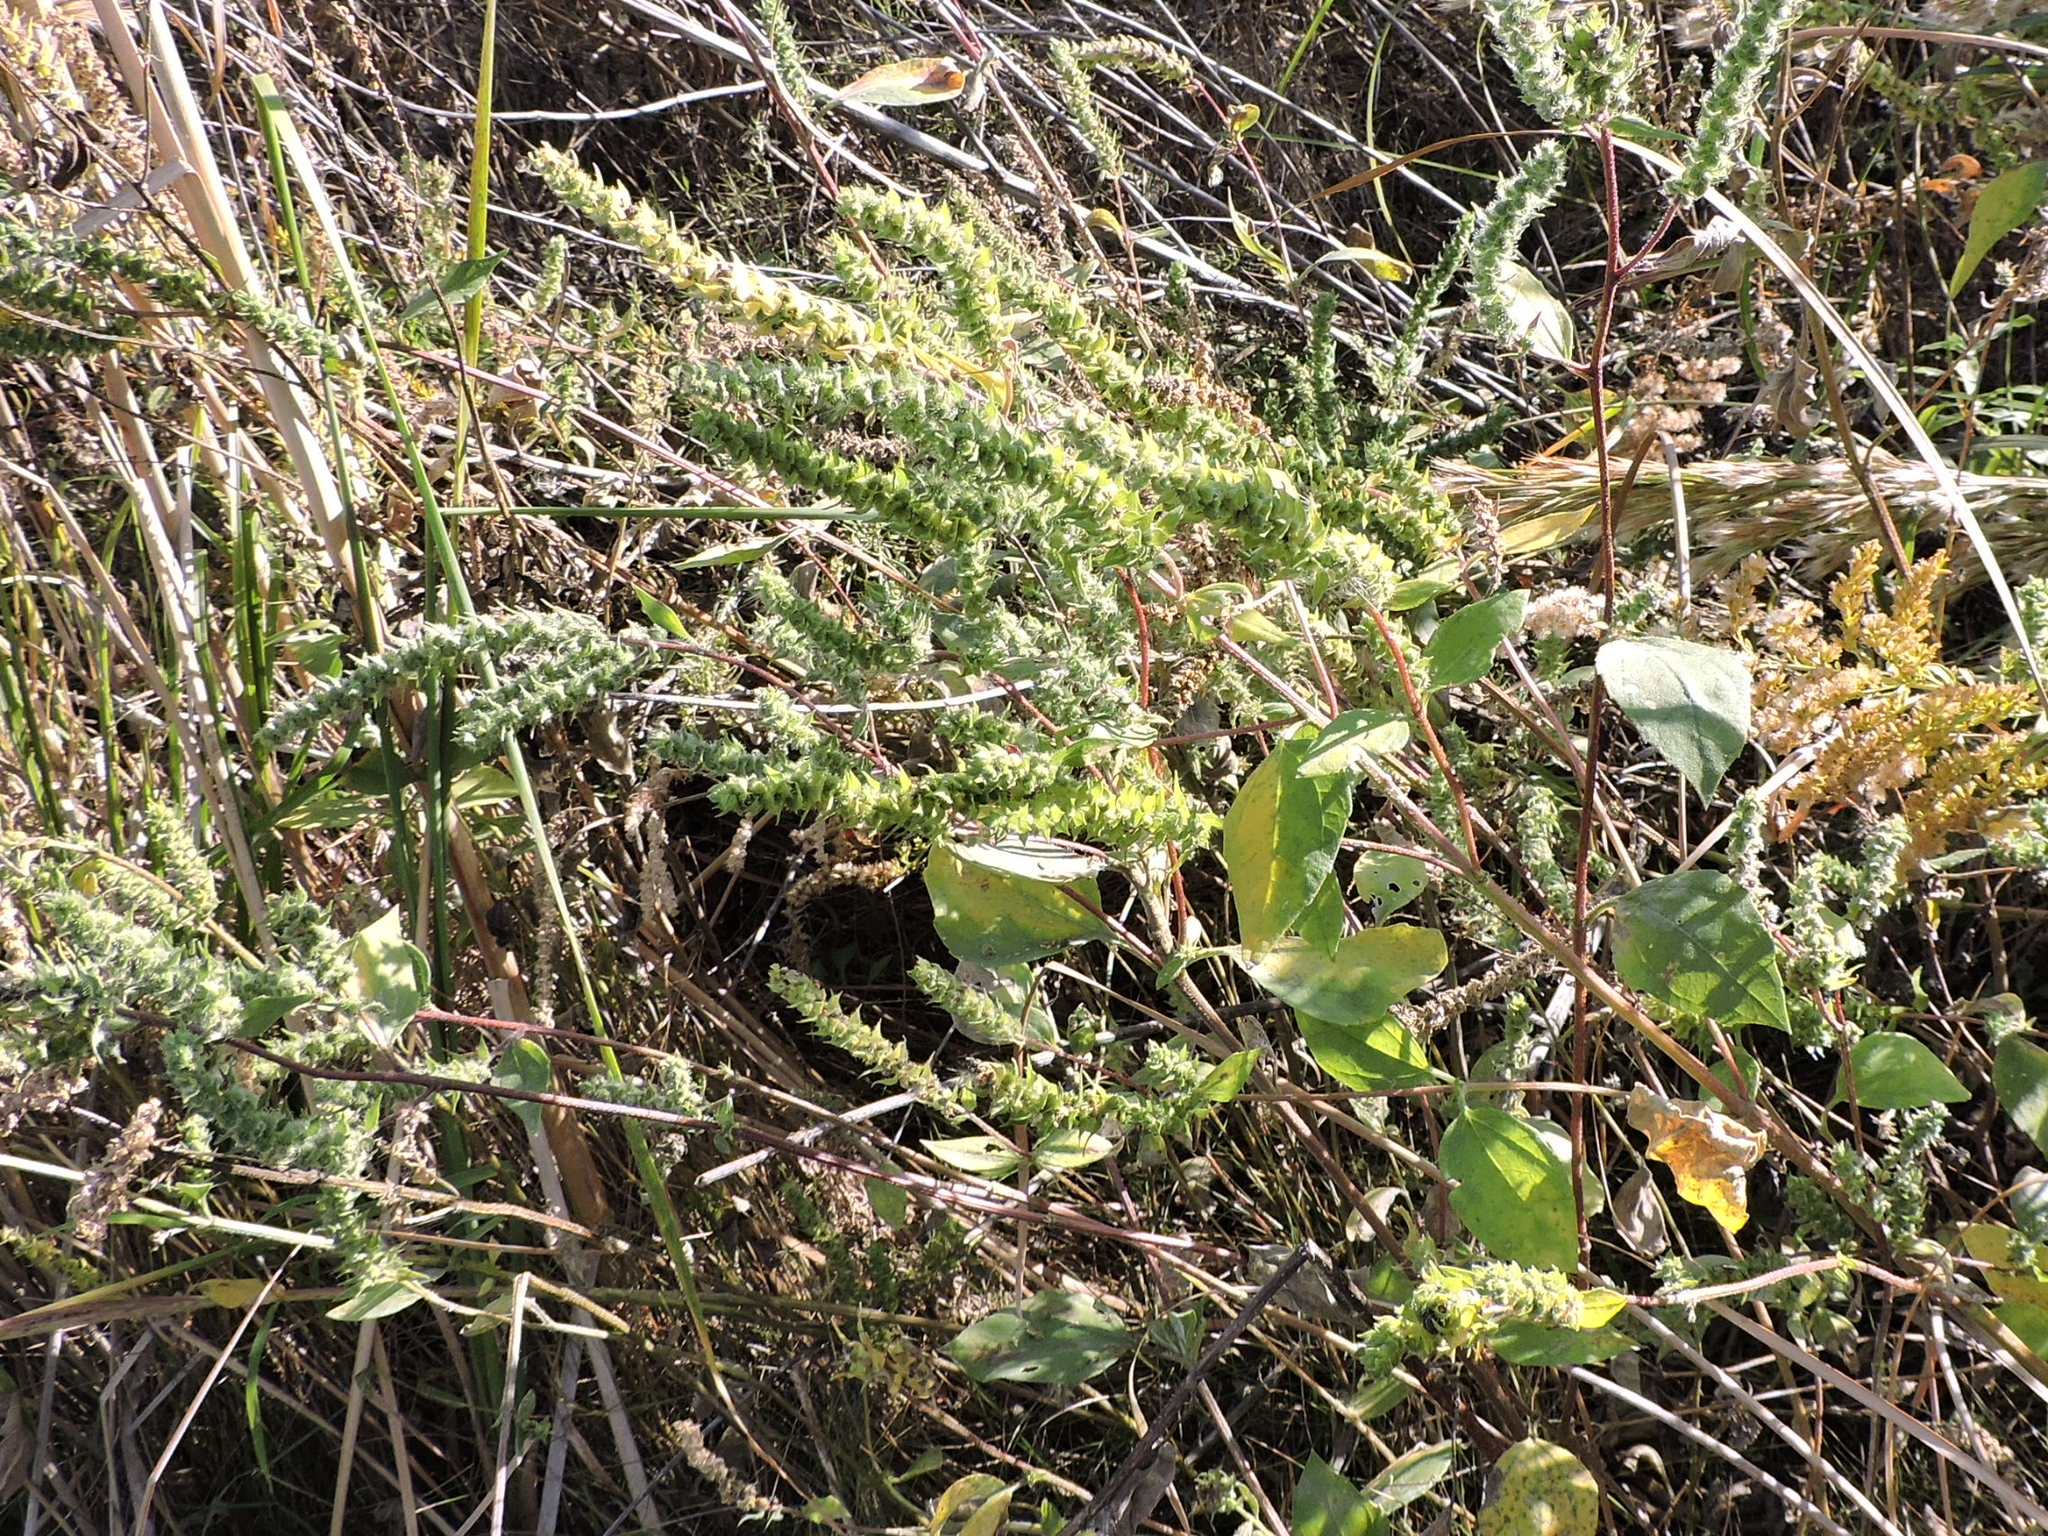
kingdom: Plantae
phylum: Tracheophyta
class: Magnoliopsida
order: Asterales
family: Asteraceae
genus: Iva
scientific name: Iva annua
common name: Marsh-elder
